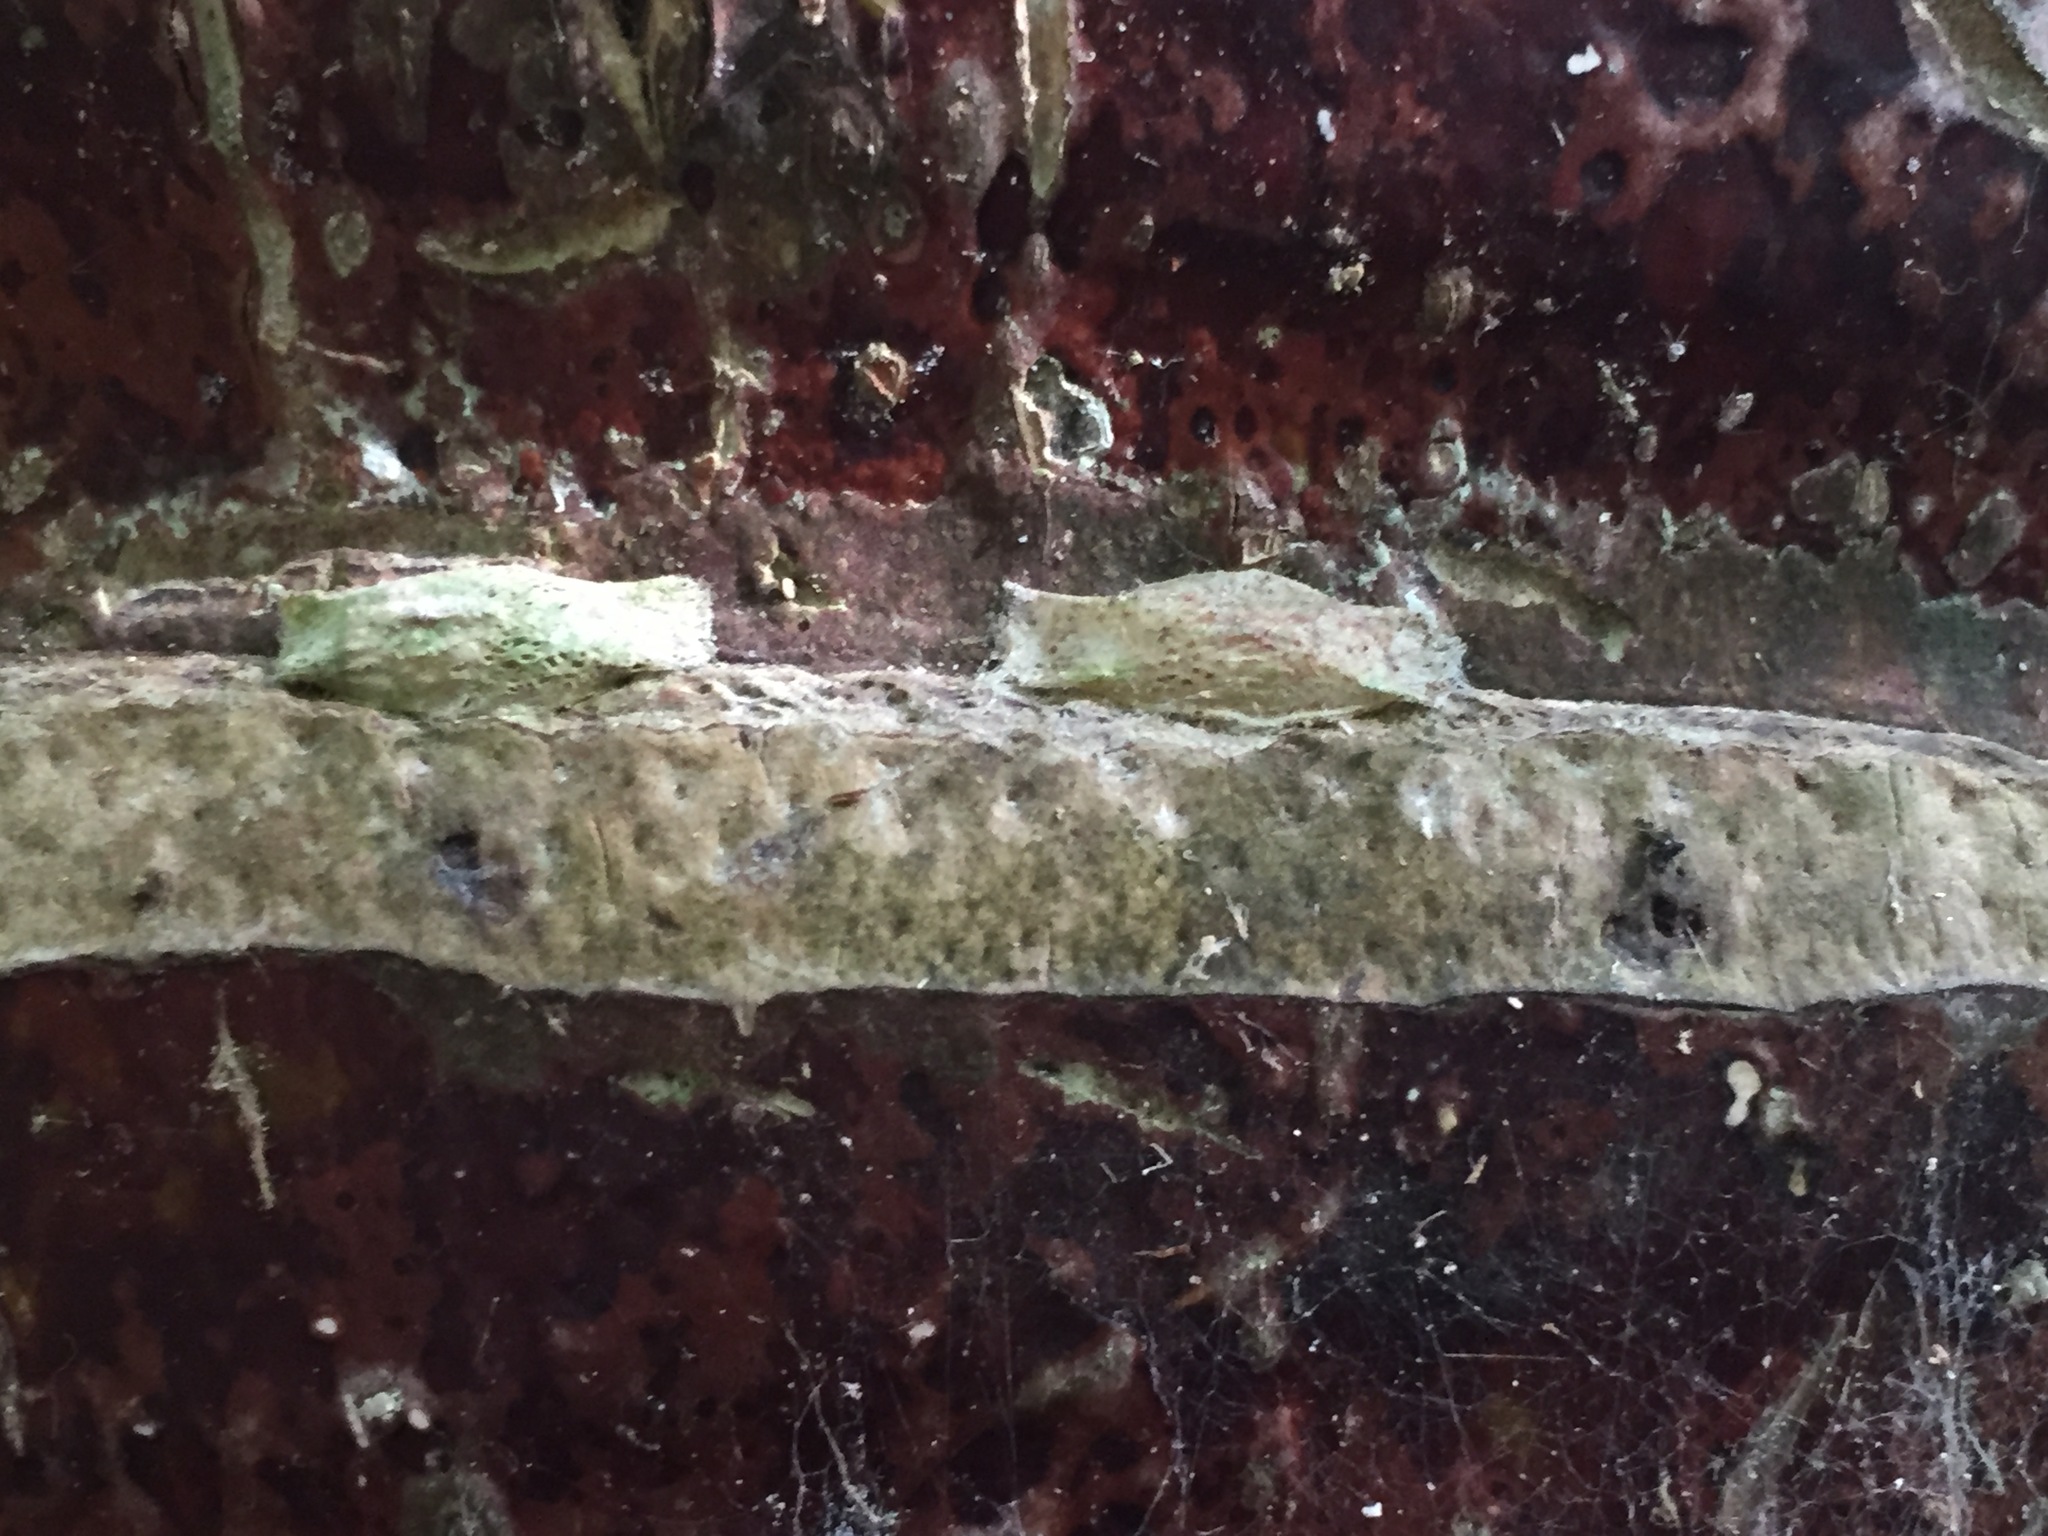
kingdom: Animalia
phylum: Arthropoda
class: Insecta
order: Lepidoptera
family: Plutellidae
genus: Doxophyrtis
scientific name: Doxophyrtis hydrocosma
